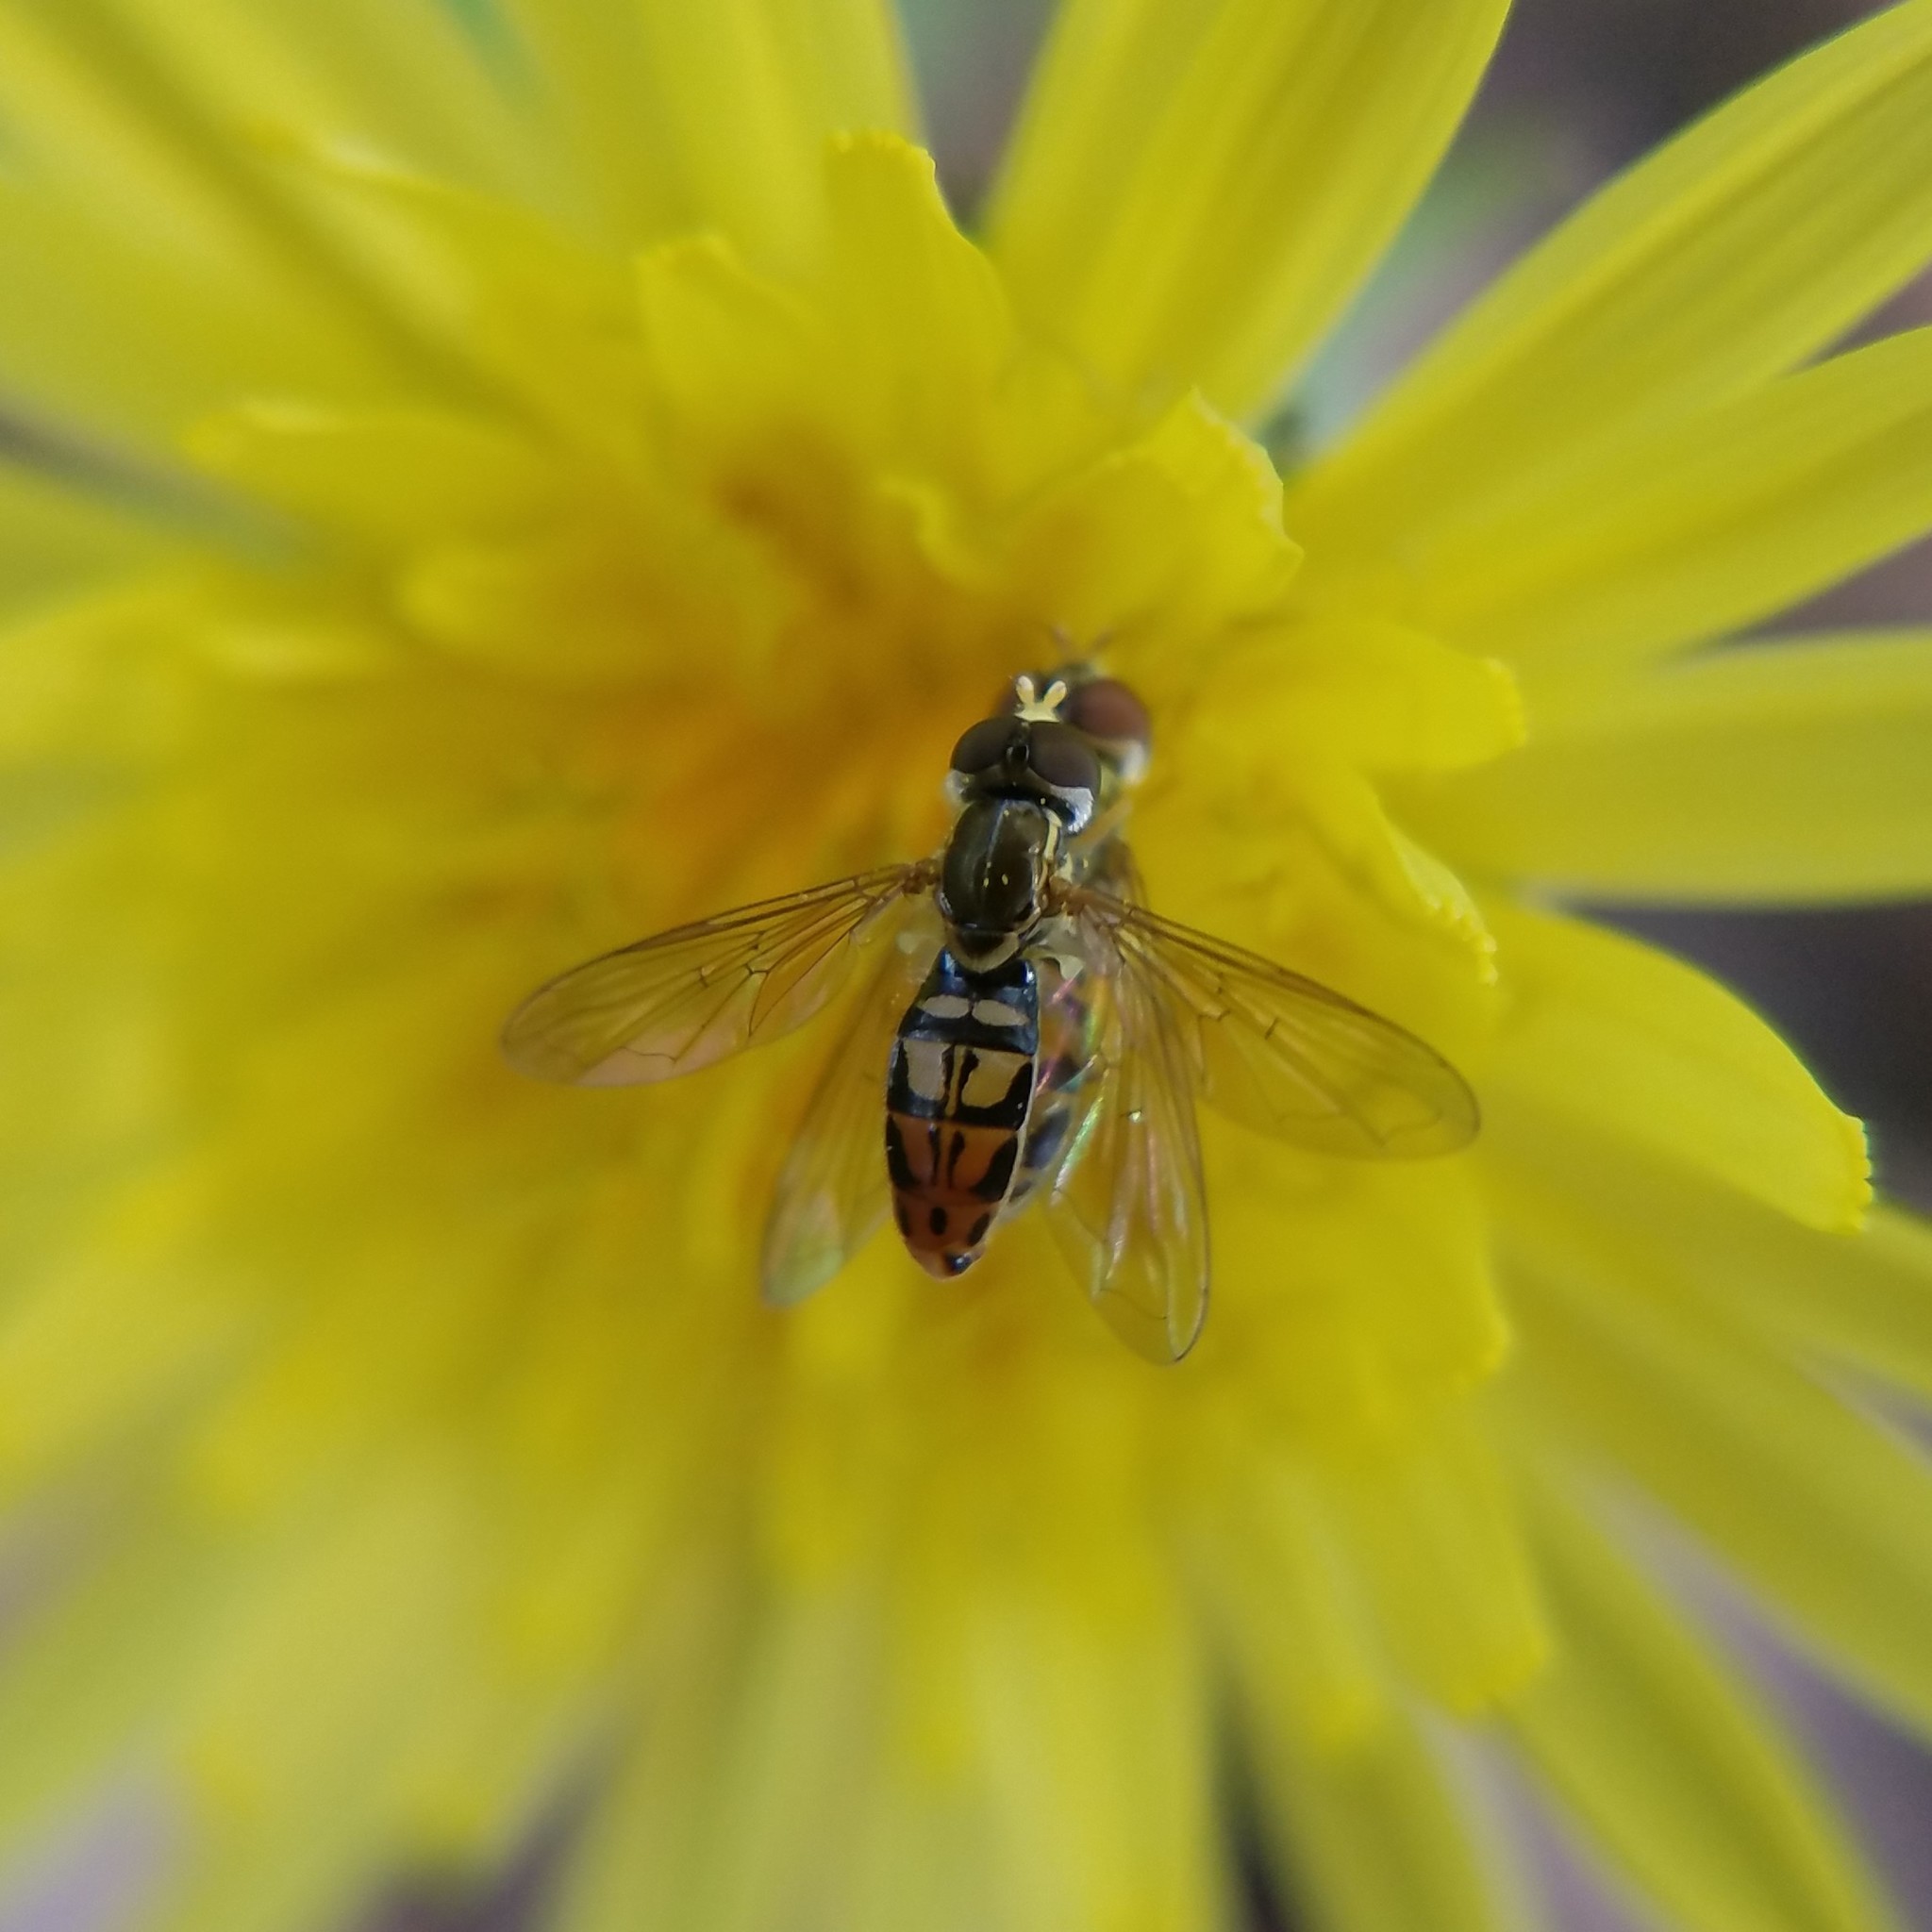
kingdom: Animalia
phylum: Arthropoda
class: Insecta
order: Diptera
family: Syrphidae
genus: Toxomerus
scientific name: Toxomerus marginatus
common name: Syrphid fly
